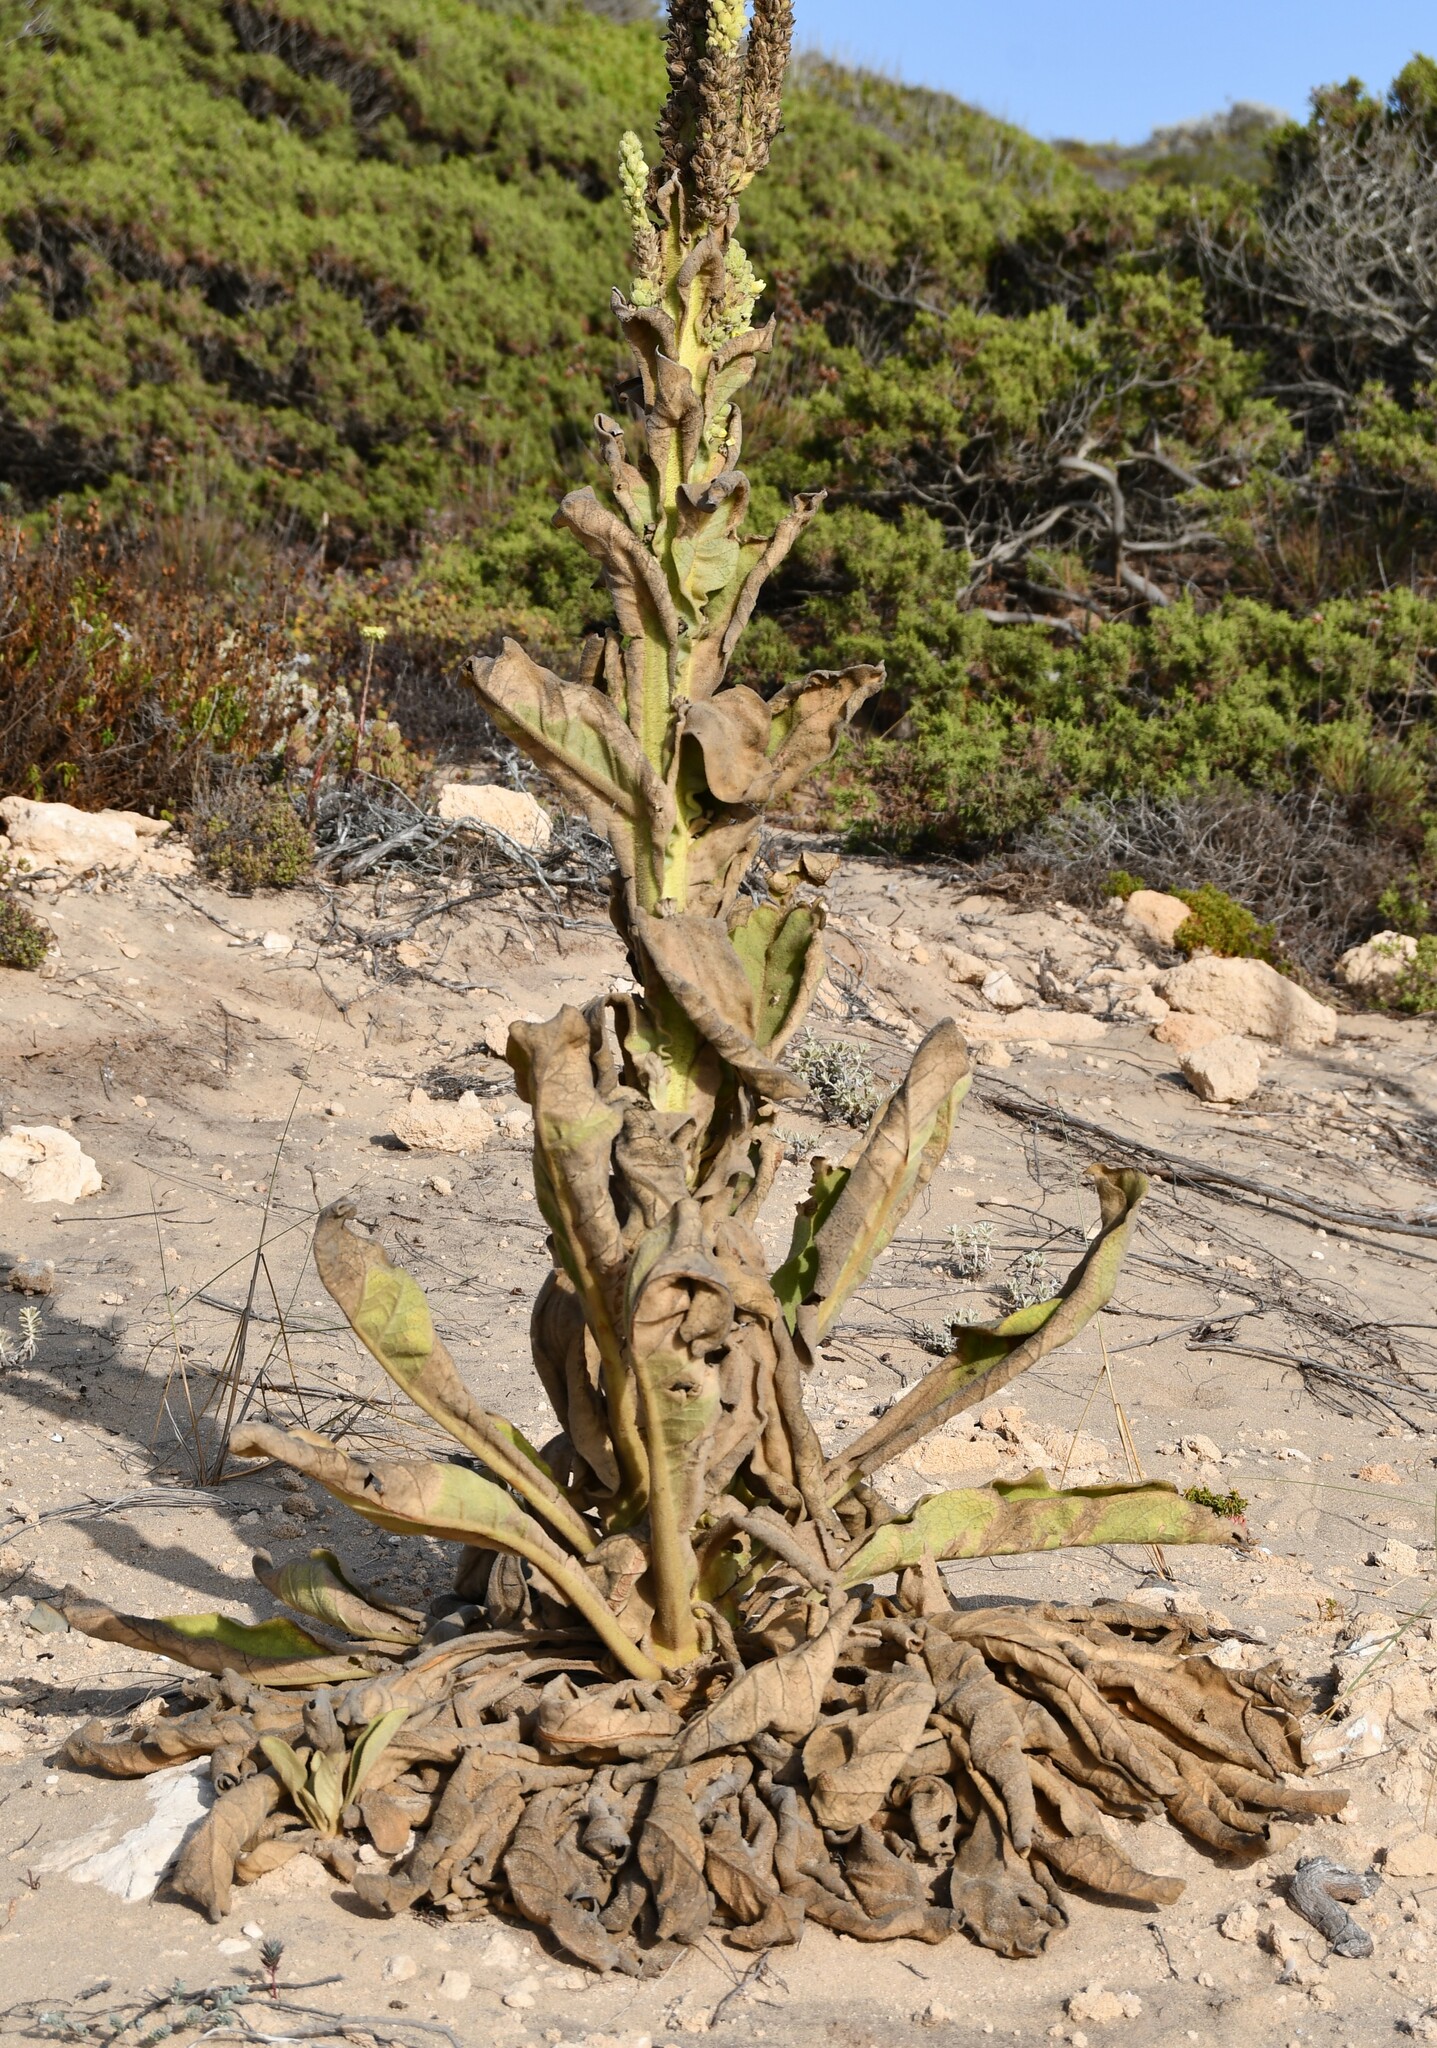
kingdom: Plantae
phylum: Tracheophyta
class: Magnoliopsida
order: Lamiales
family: Scrophulariaceae
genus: Verbascum
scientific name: Verbascum litigiosum
